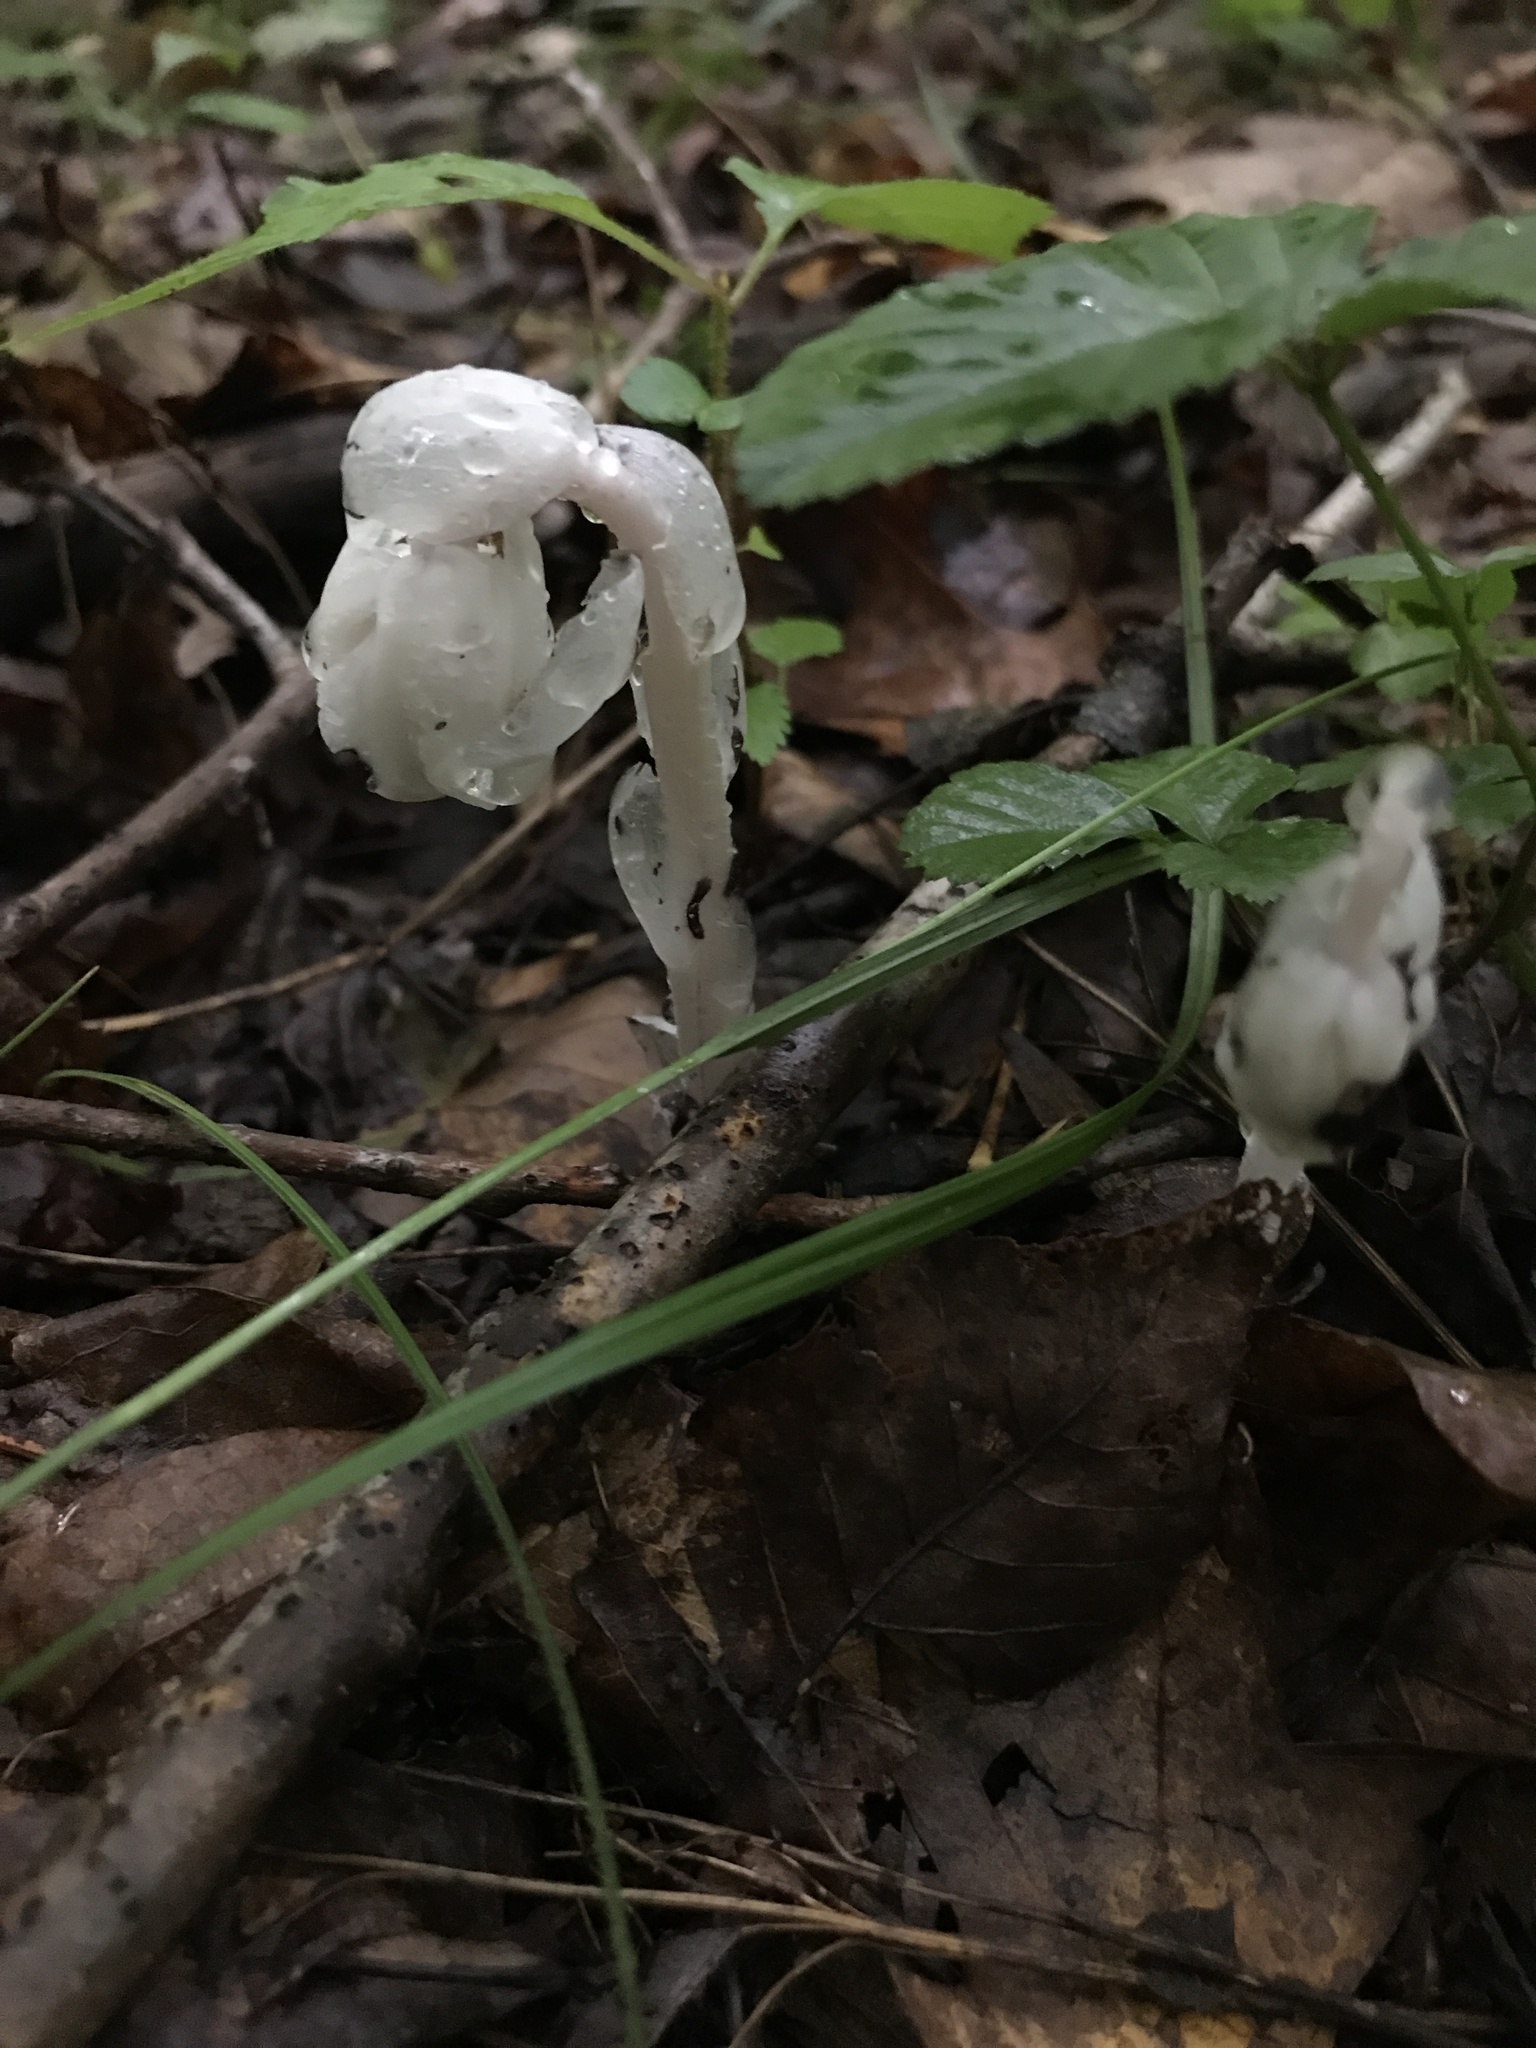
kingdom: Plantae
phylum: Tracheophyta
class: Magnoliopsida
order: Ericales
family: Ericaceae
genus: Monotropa
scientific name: Monotropa uniflora
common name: Convulsion root
